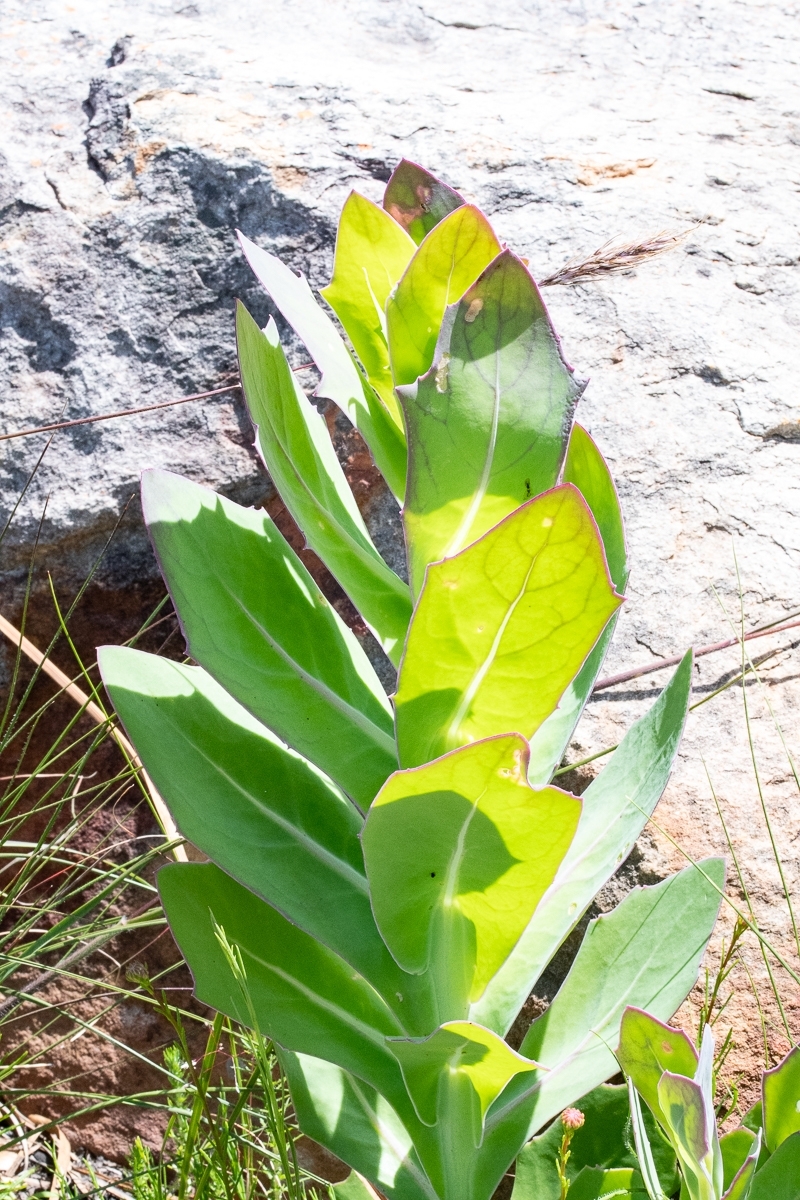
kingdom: Plantae
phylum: Tracheophyta
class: Magnoliopsida
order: Asterales
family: Asteraceae
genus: Othonna
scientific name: Othonna quinquedentata
